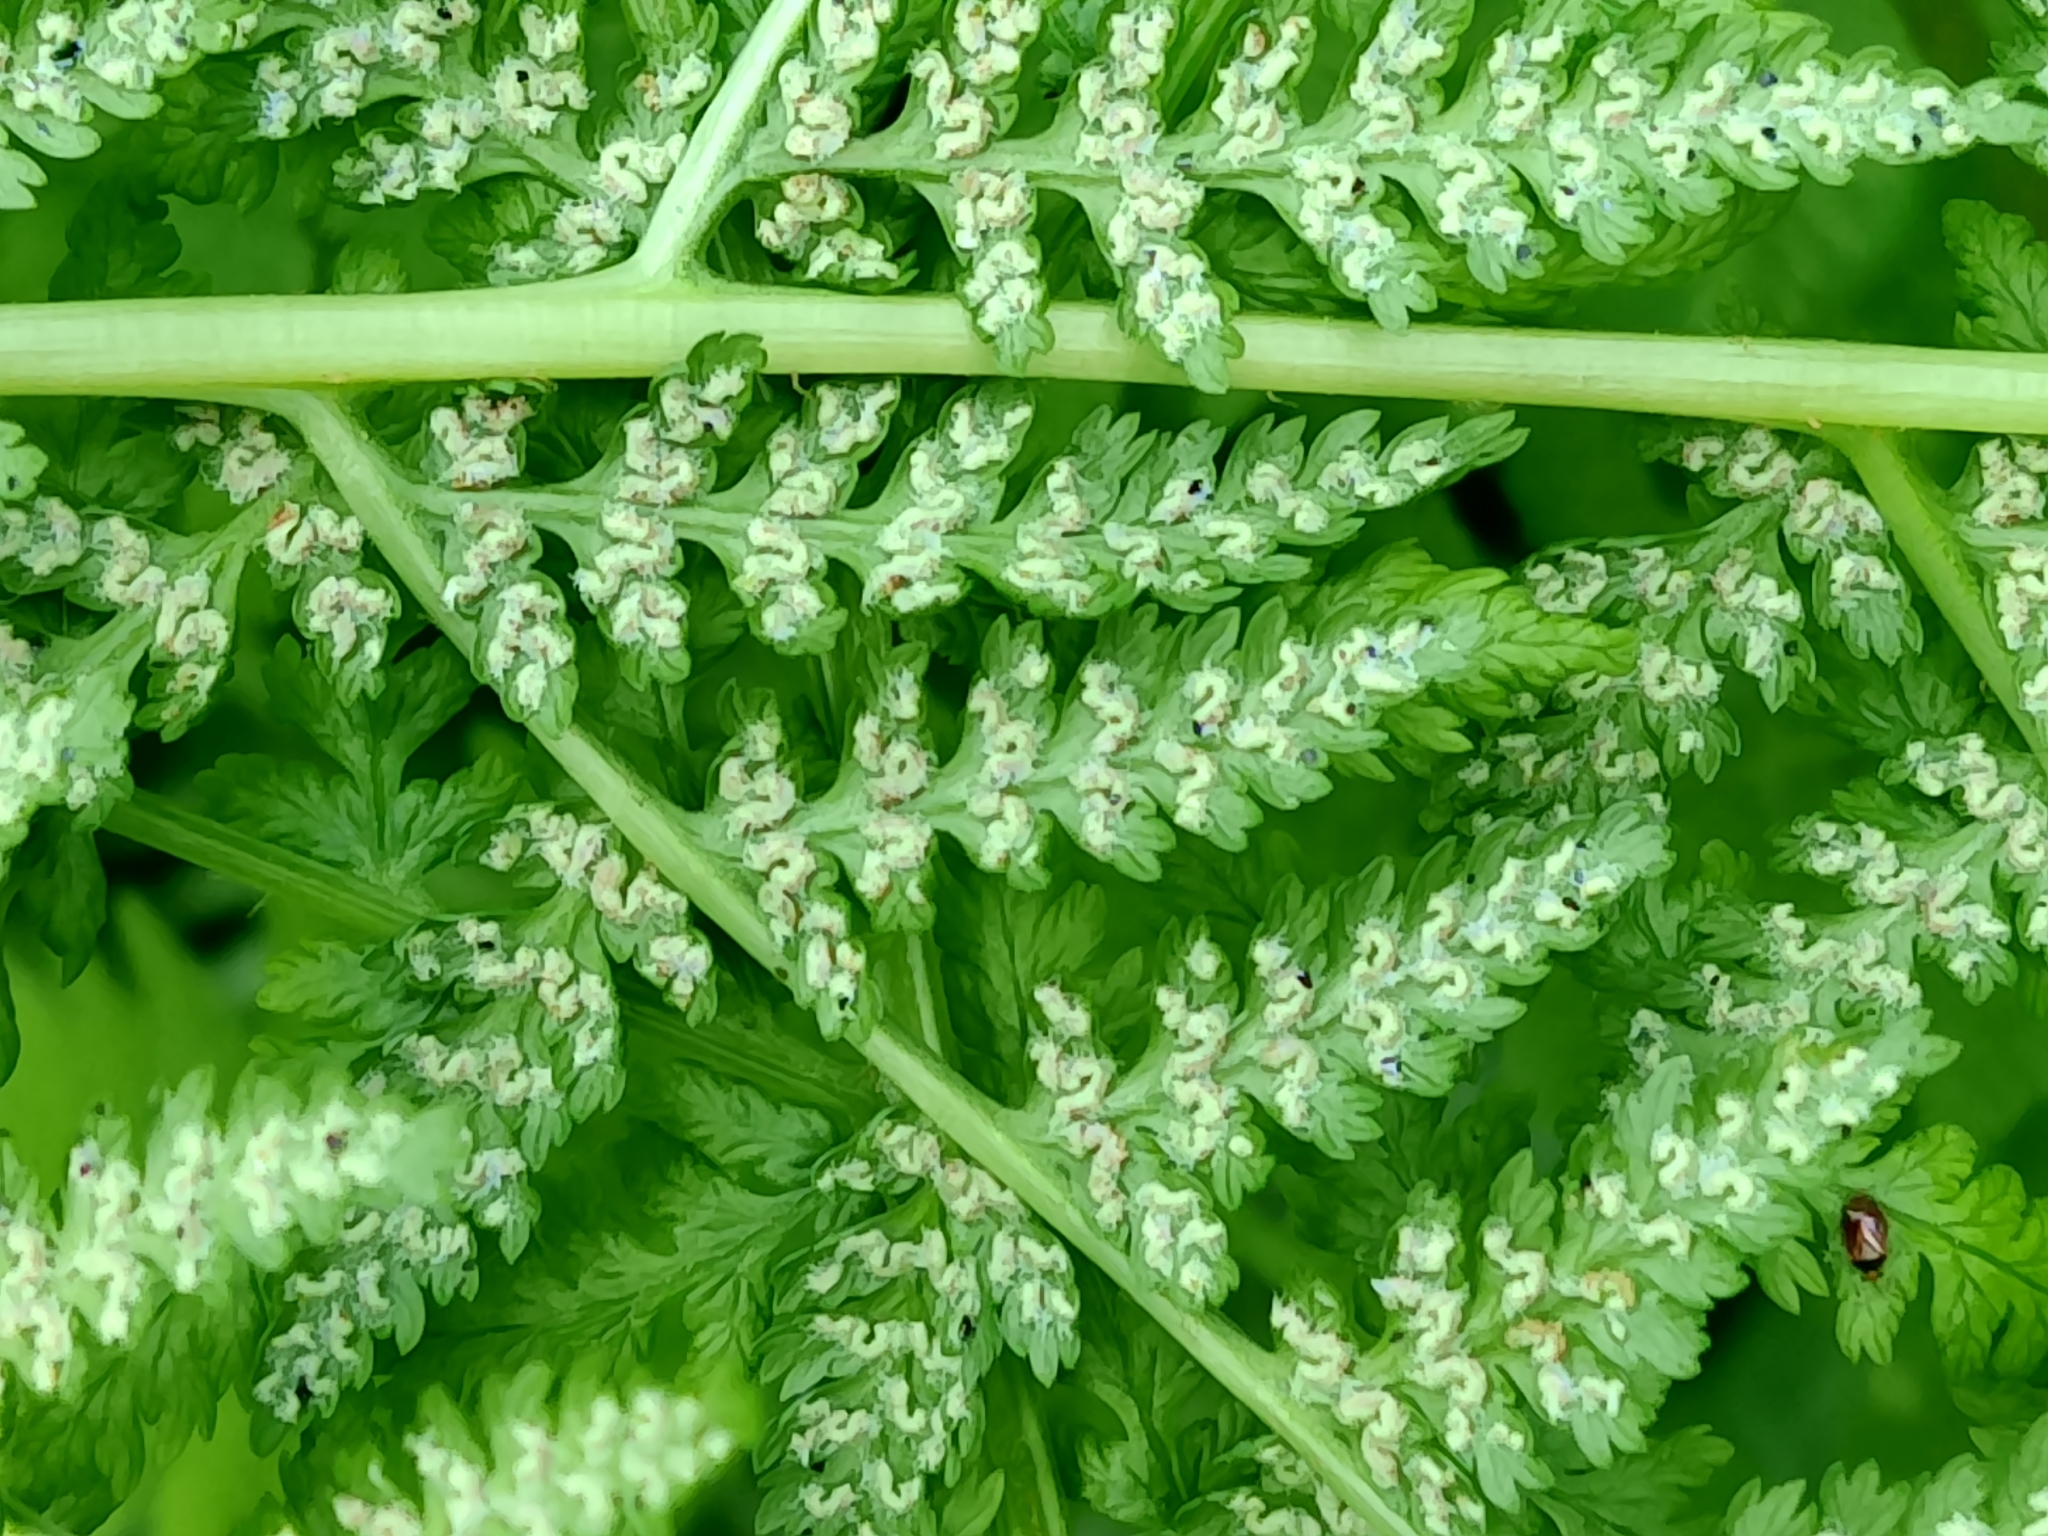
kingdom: Plantae
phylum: Tracheophyta
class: Polypodiopsida
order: Polypodiales
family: Athyriaceae
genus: Athyrium
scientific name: Athyrium filix-femina
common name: Lady fern
